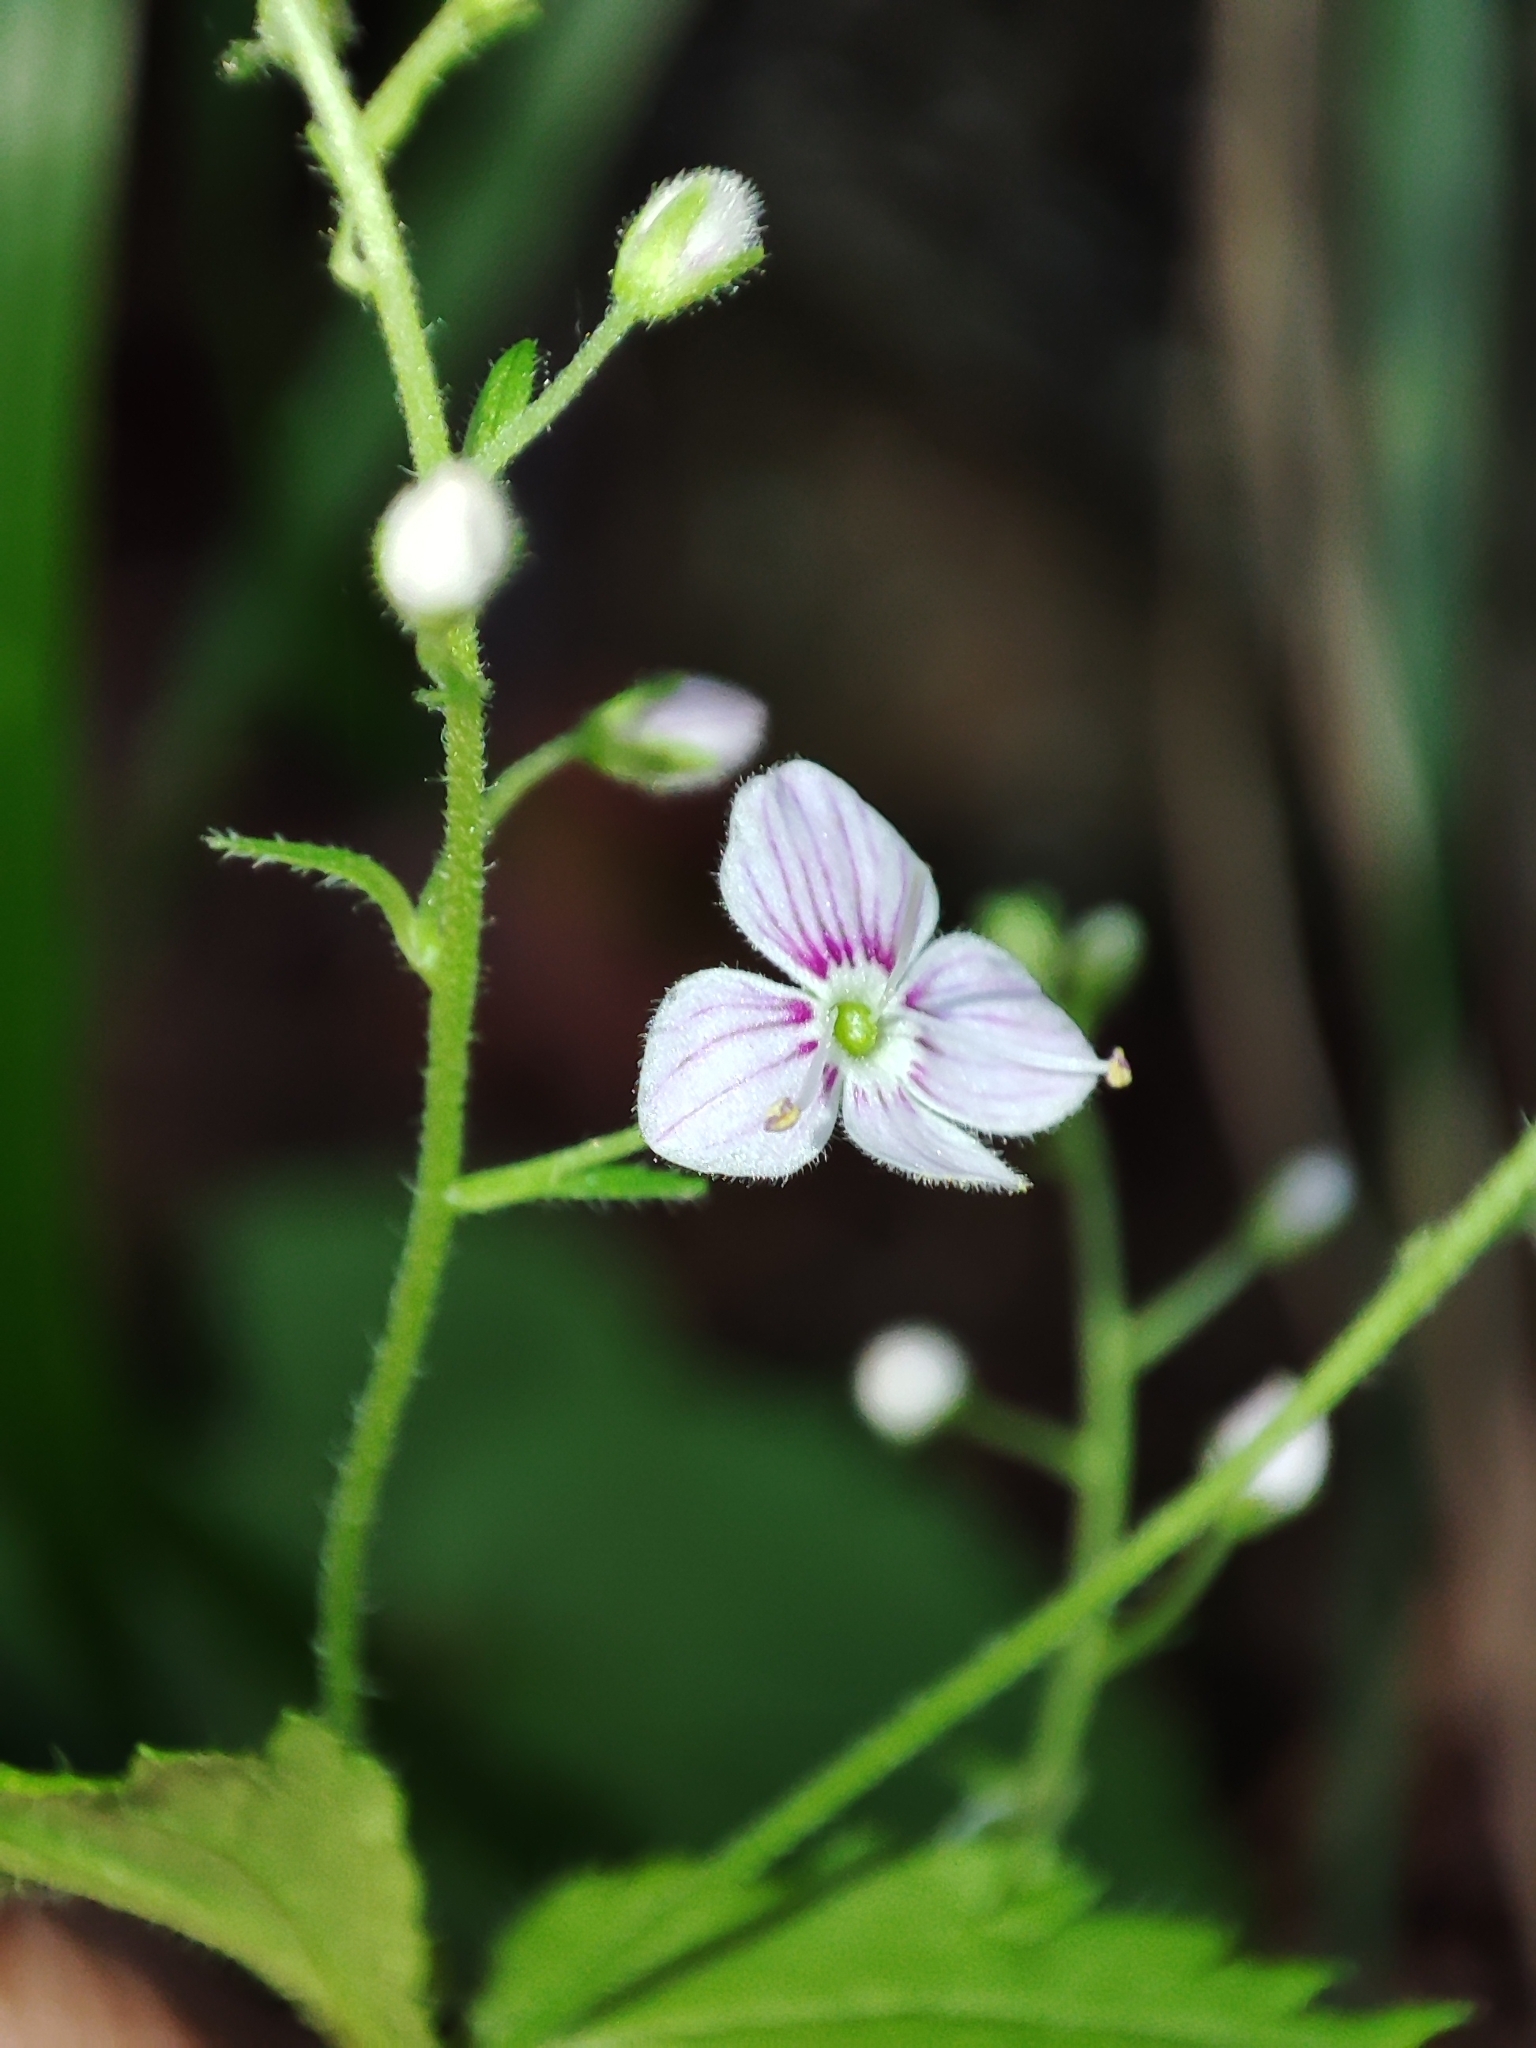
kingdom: Plantae
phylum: Tracheophyta
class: Magnoliopsida
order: Lamiales
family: Plantaginaceae
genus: Veronica
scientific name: Veronica urticifolia
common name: Nettle-leaf speedwell
